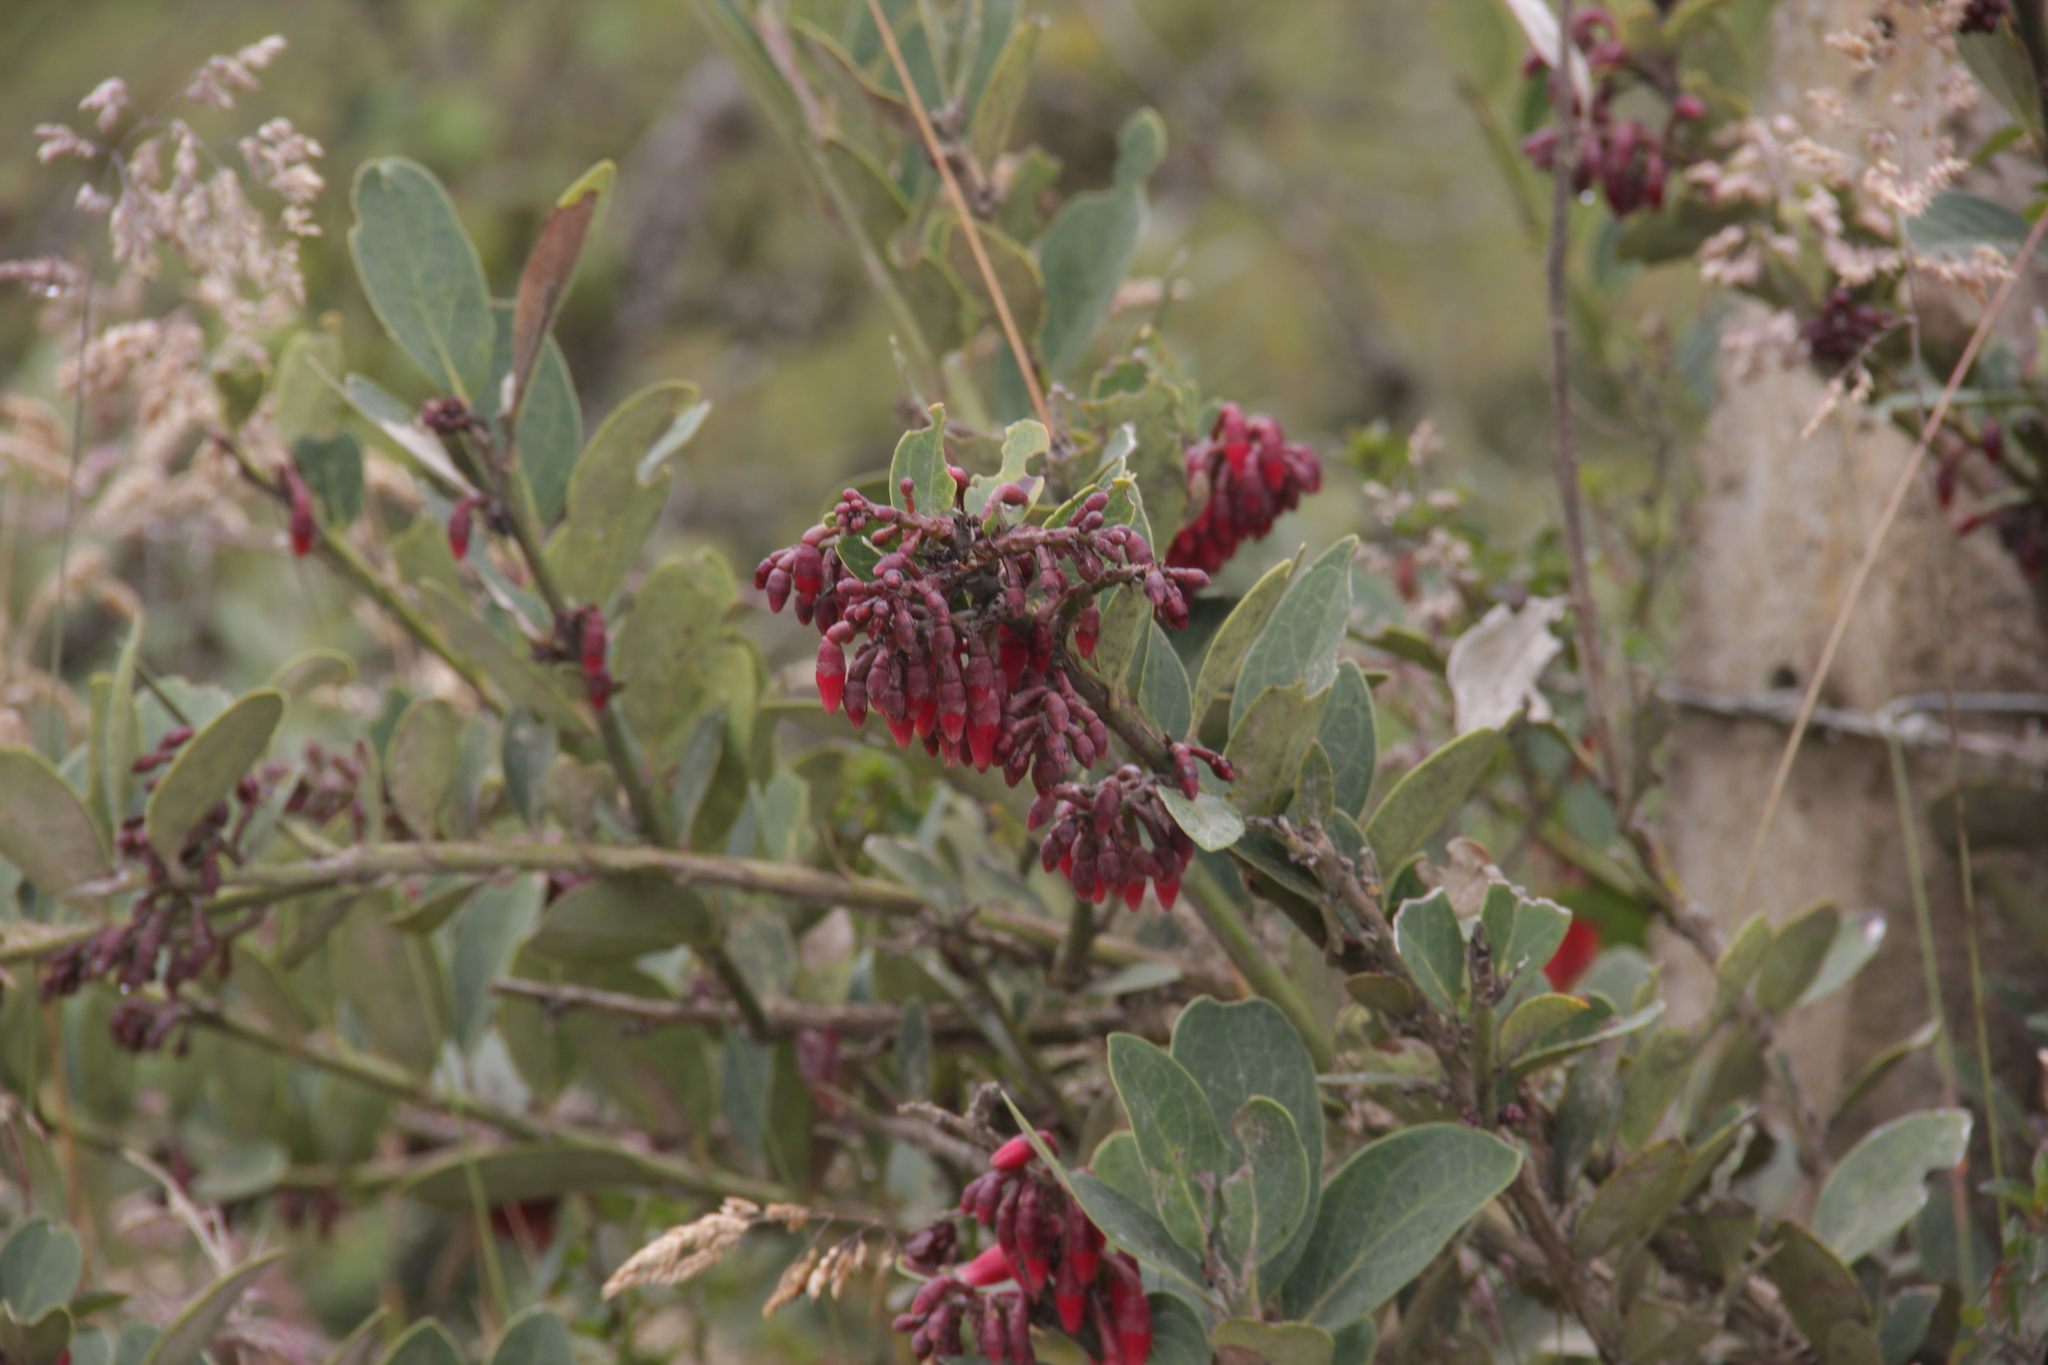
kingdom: Plantae
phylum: Tracheophyta
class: Magnoliopsida
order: Ericales
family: Ericaceae
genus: Macleania
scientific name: Macleania rupestris
